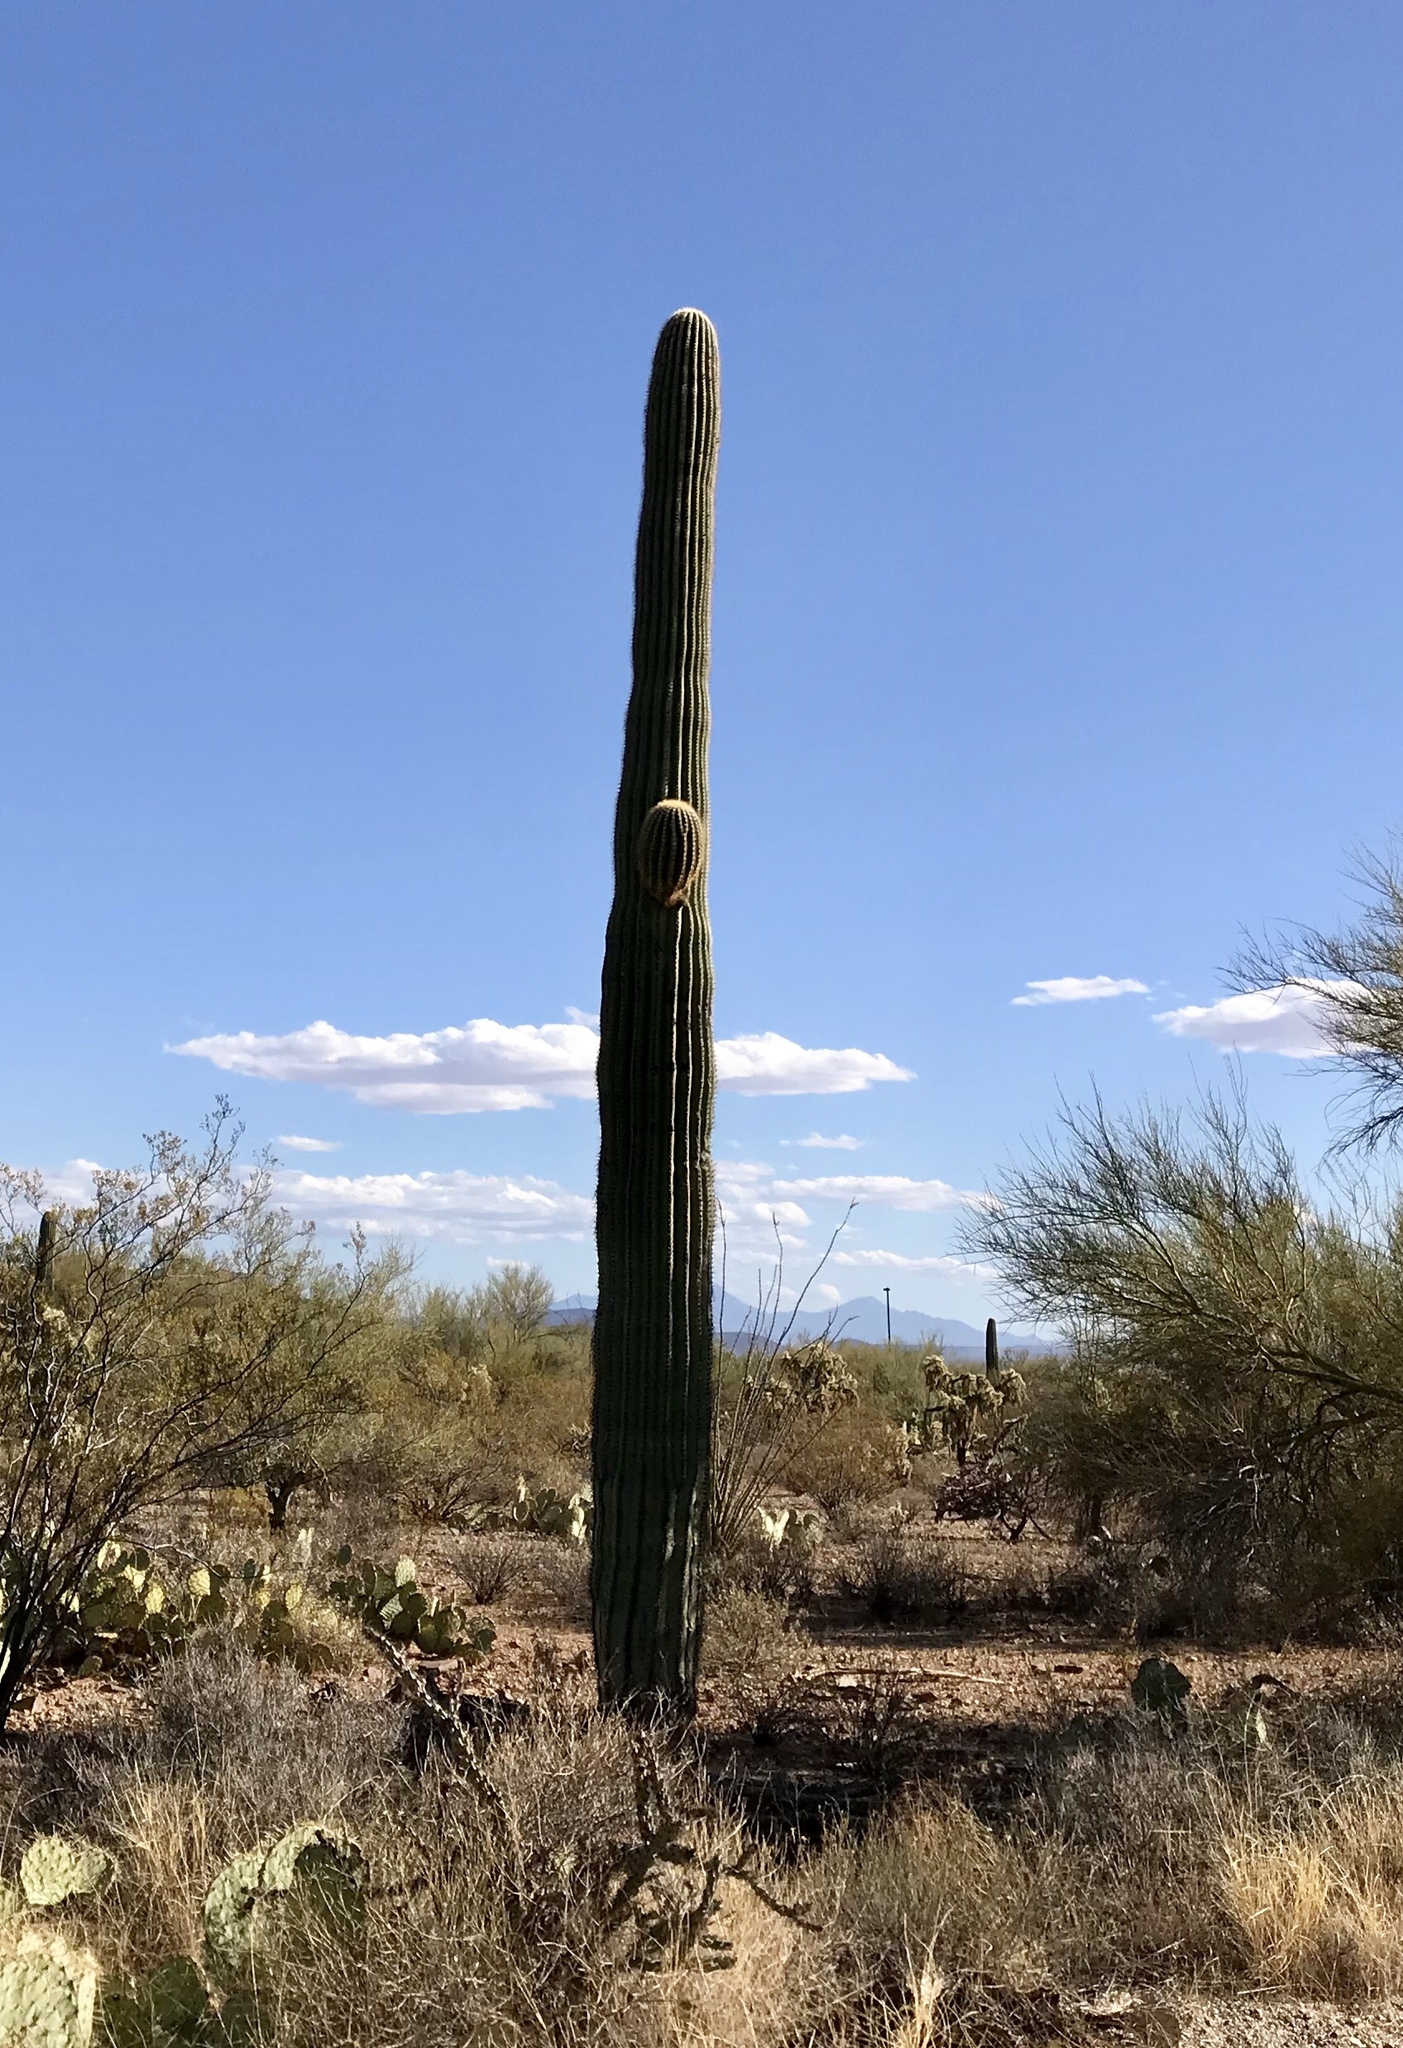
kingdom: Plantae
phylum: Tracheophyta
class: Magnoliopsida
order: Caryophyllales
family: Cactaceae
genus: Carnegiea
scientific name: Carnegiea gigantea
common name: Saguaro
